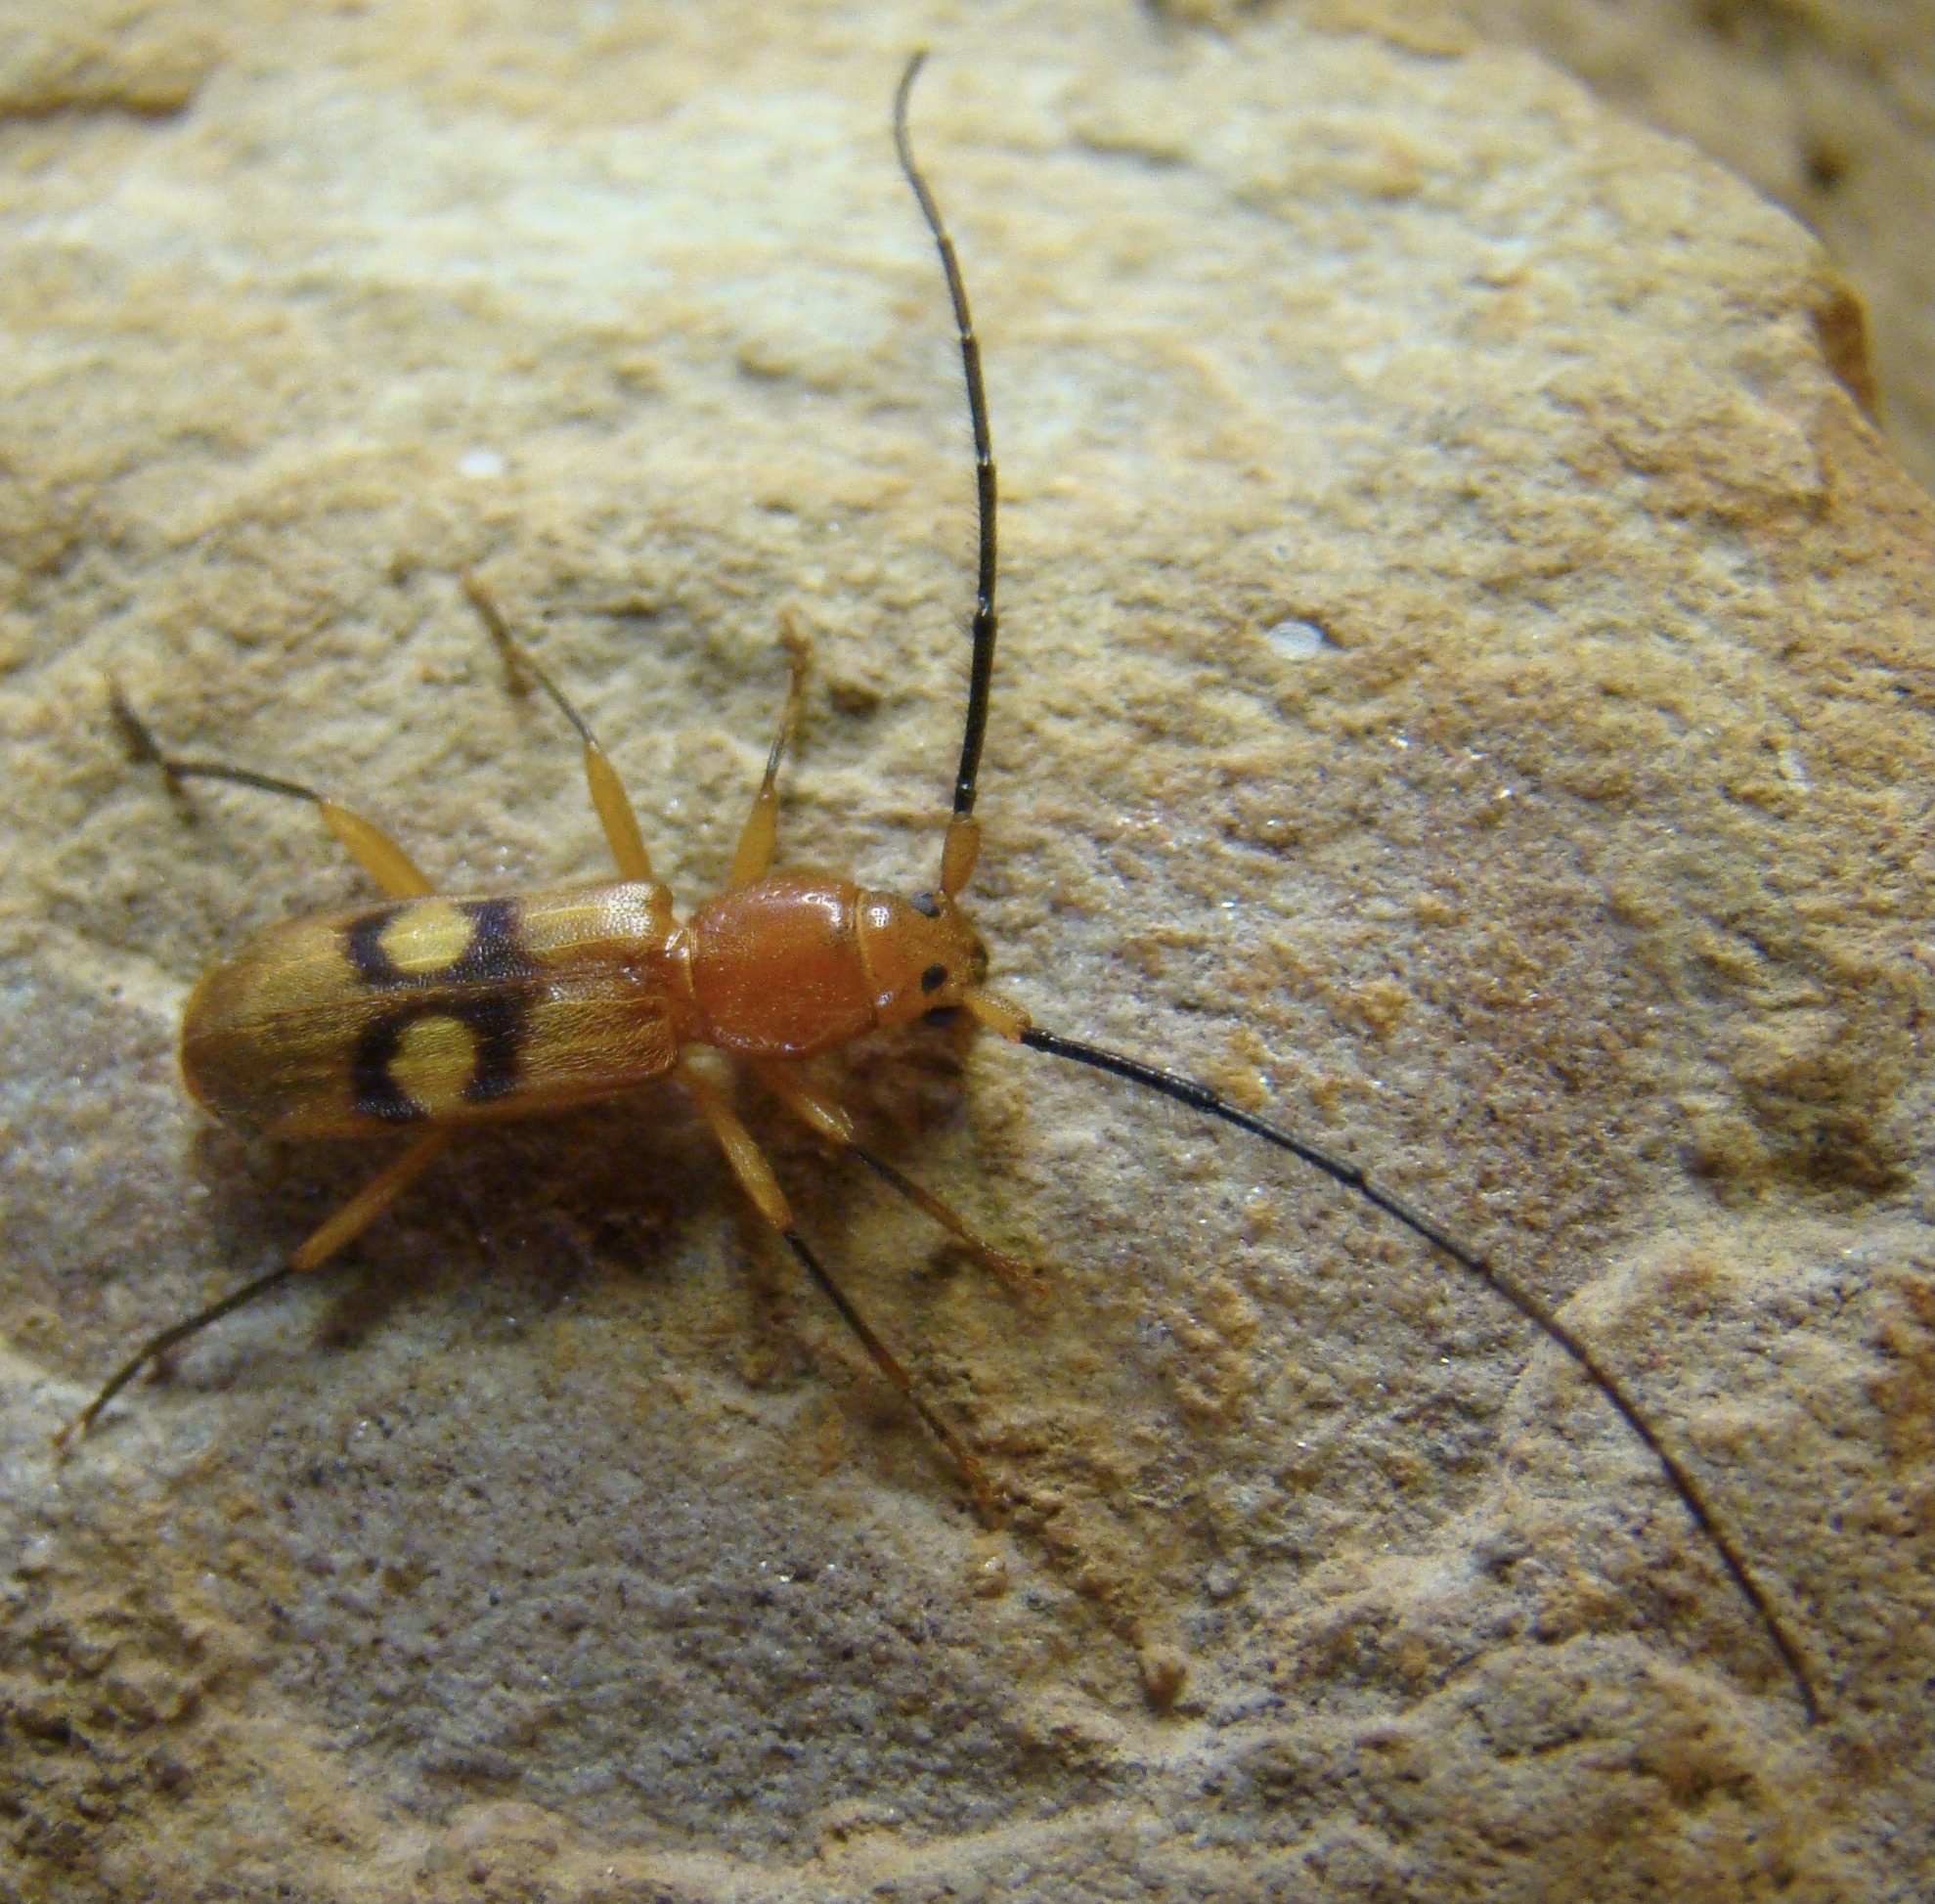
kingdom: Animalia
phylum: Arthropoda
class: Insecta
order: Coleoptera
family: Cerambycidae
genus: Coptoeme
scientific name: Coptoeme krantzi
